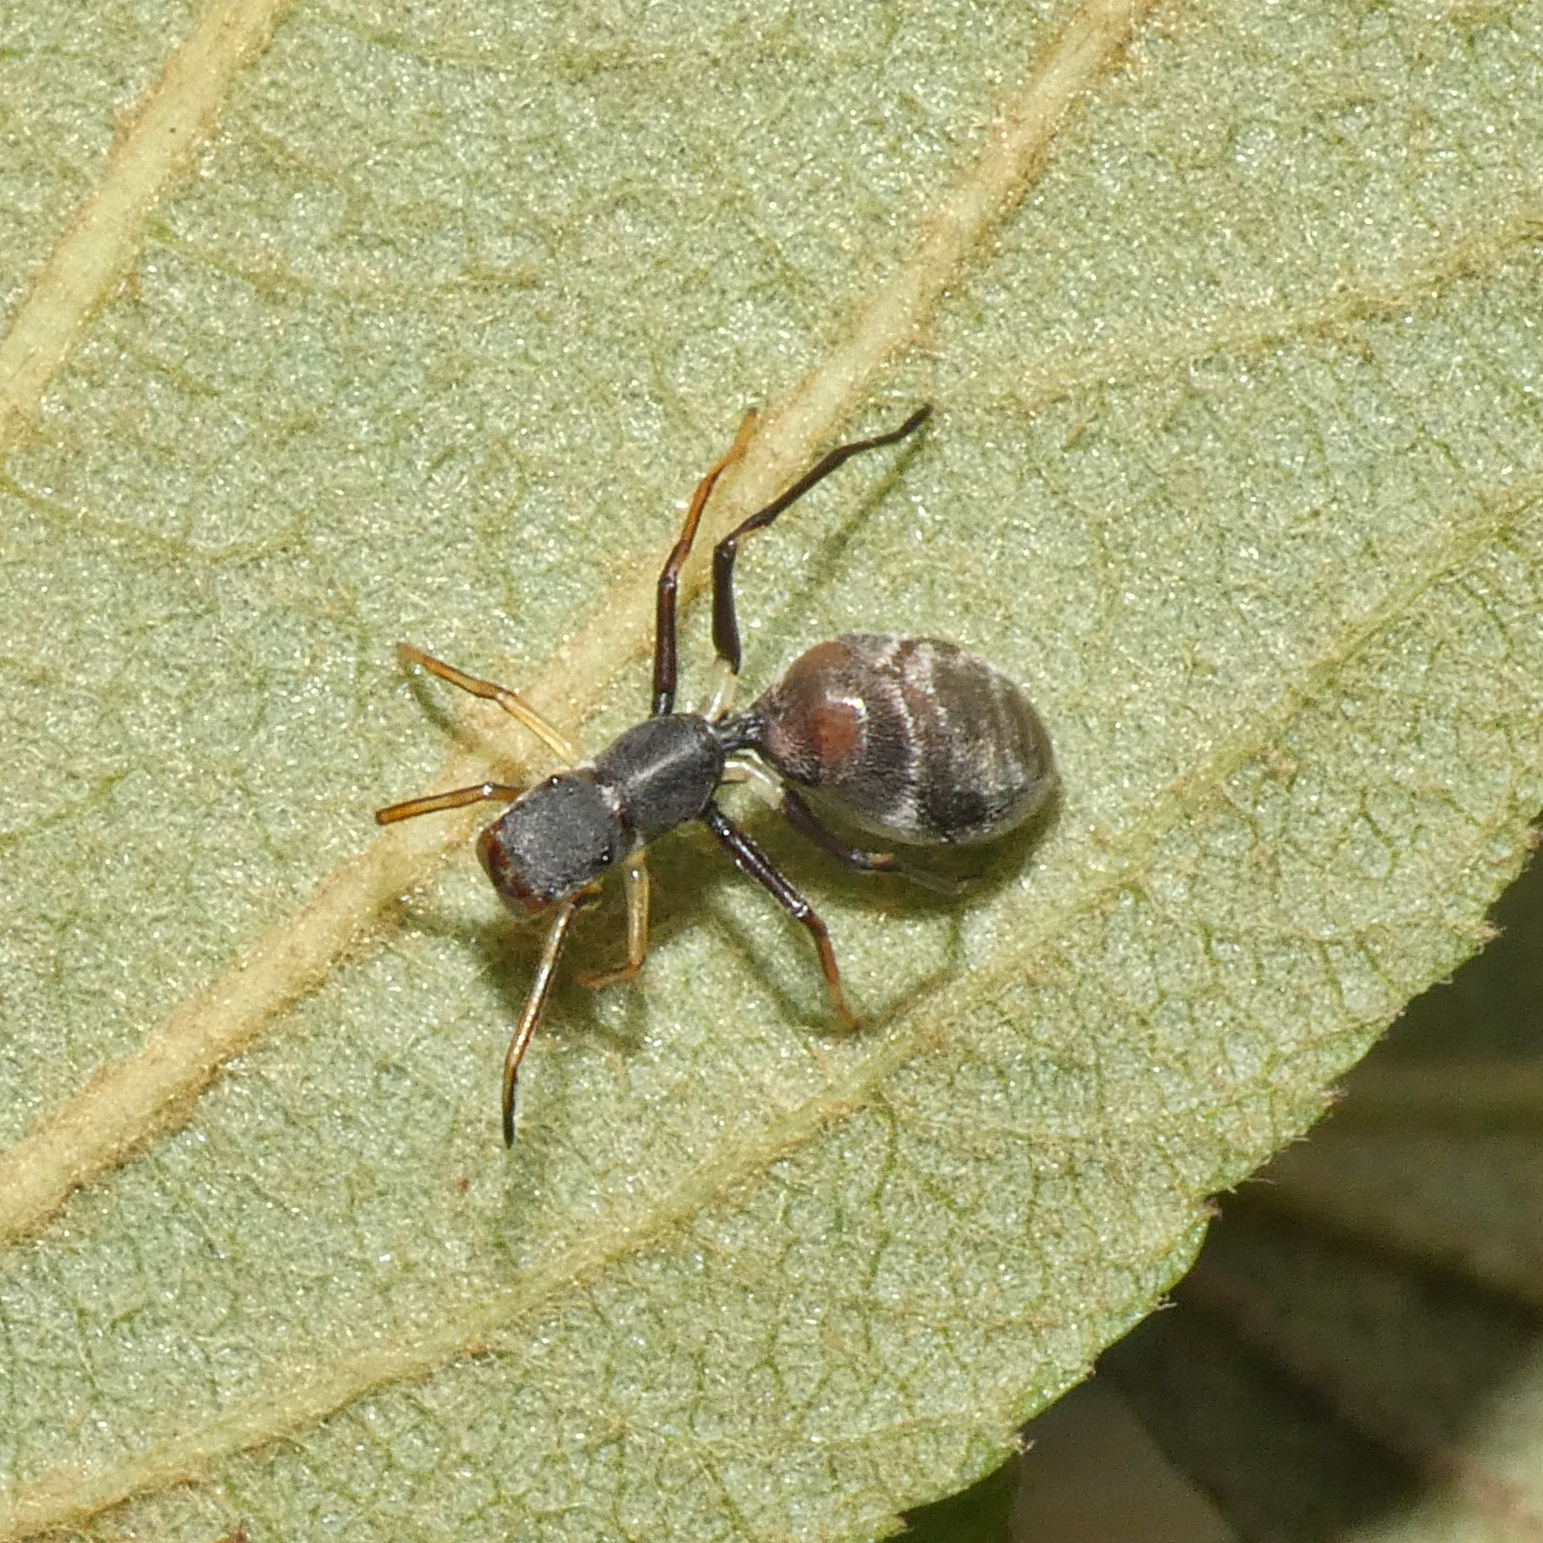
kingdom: Animalia
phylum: Arthropoda
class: Arachnida
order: Araneae
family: Salticidae
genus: Myrmarachne
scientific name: Myrmarachne marshalli
